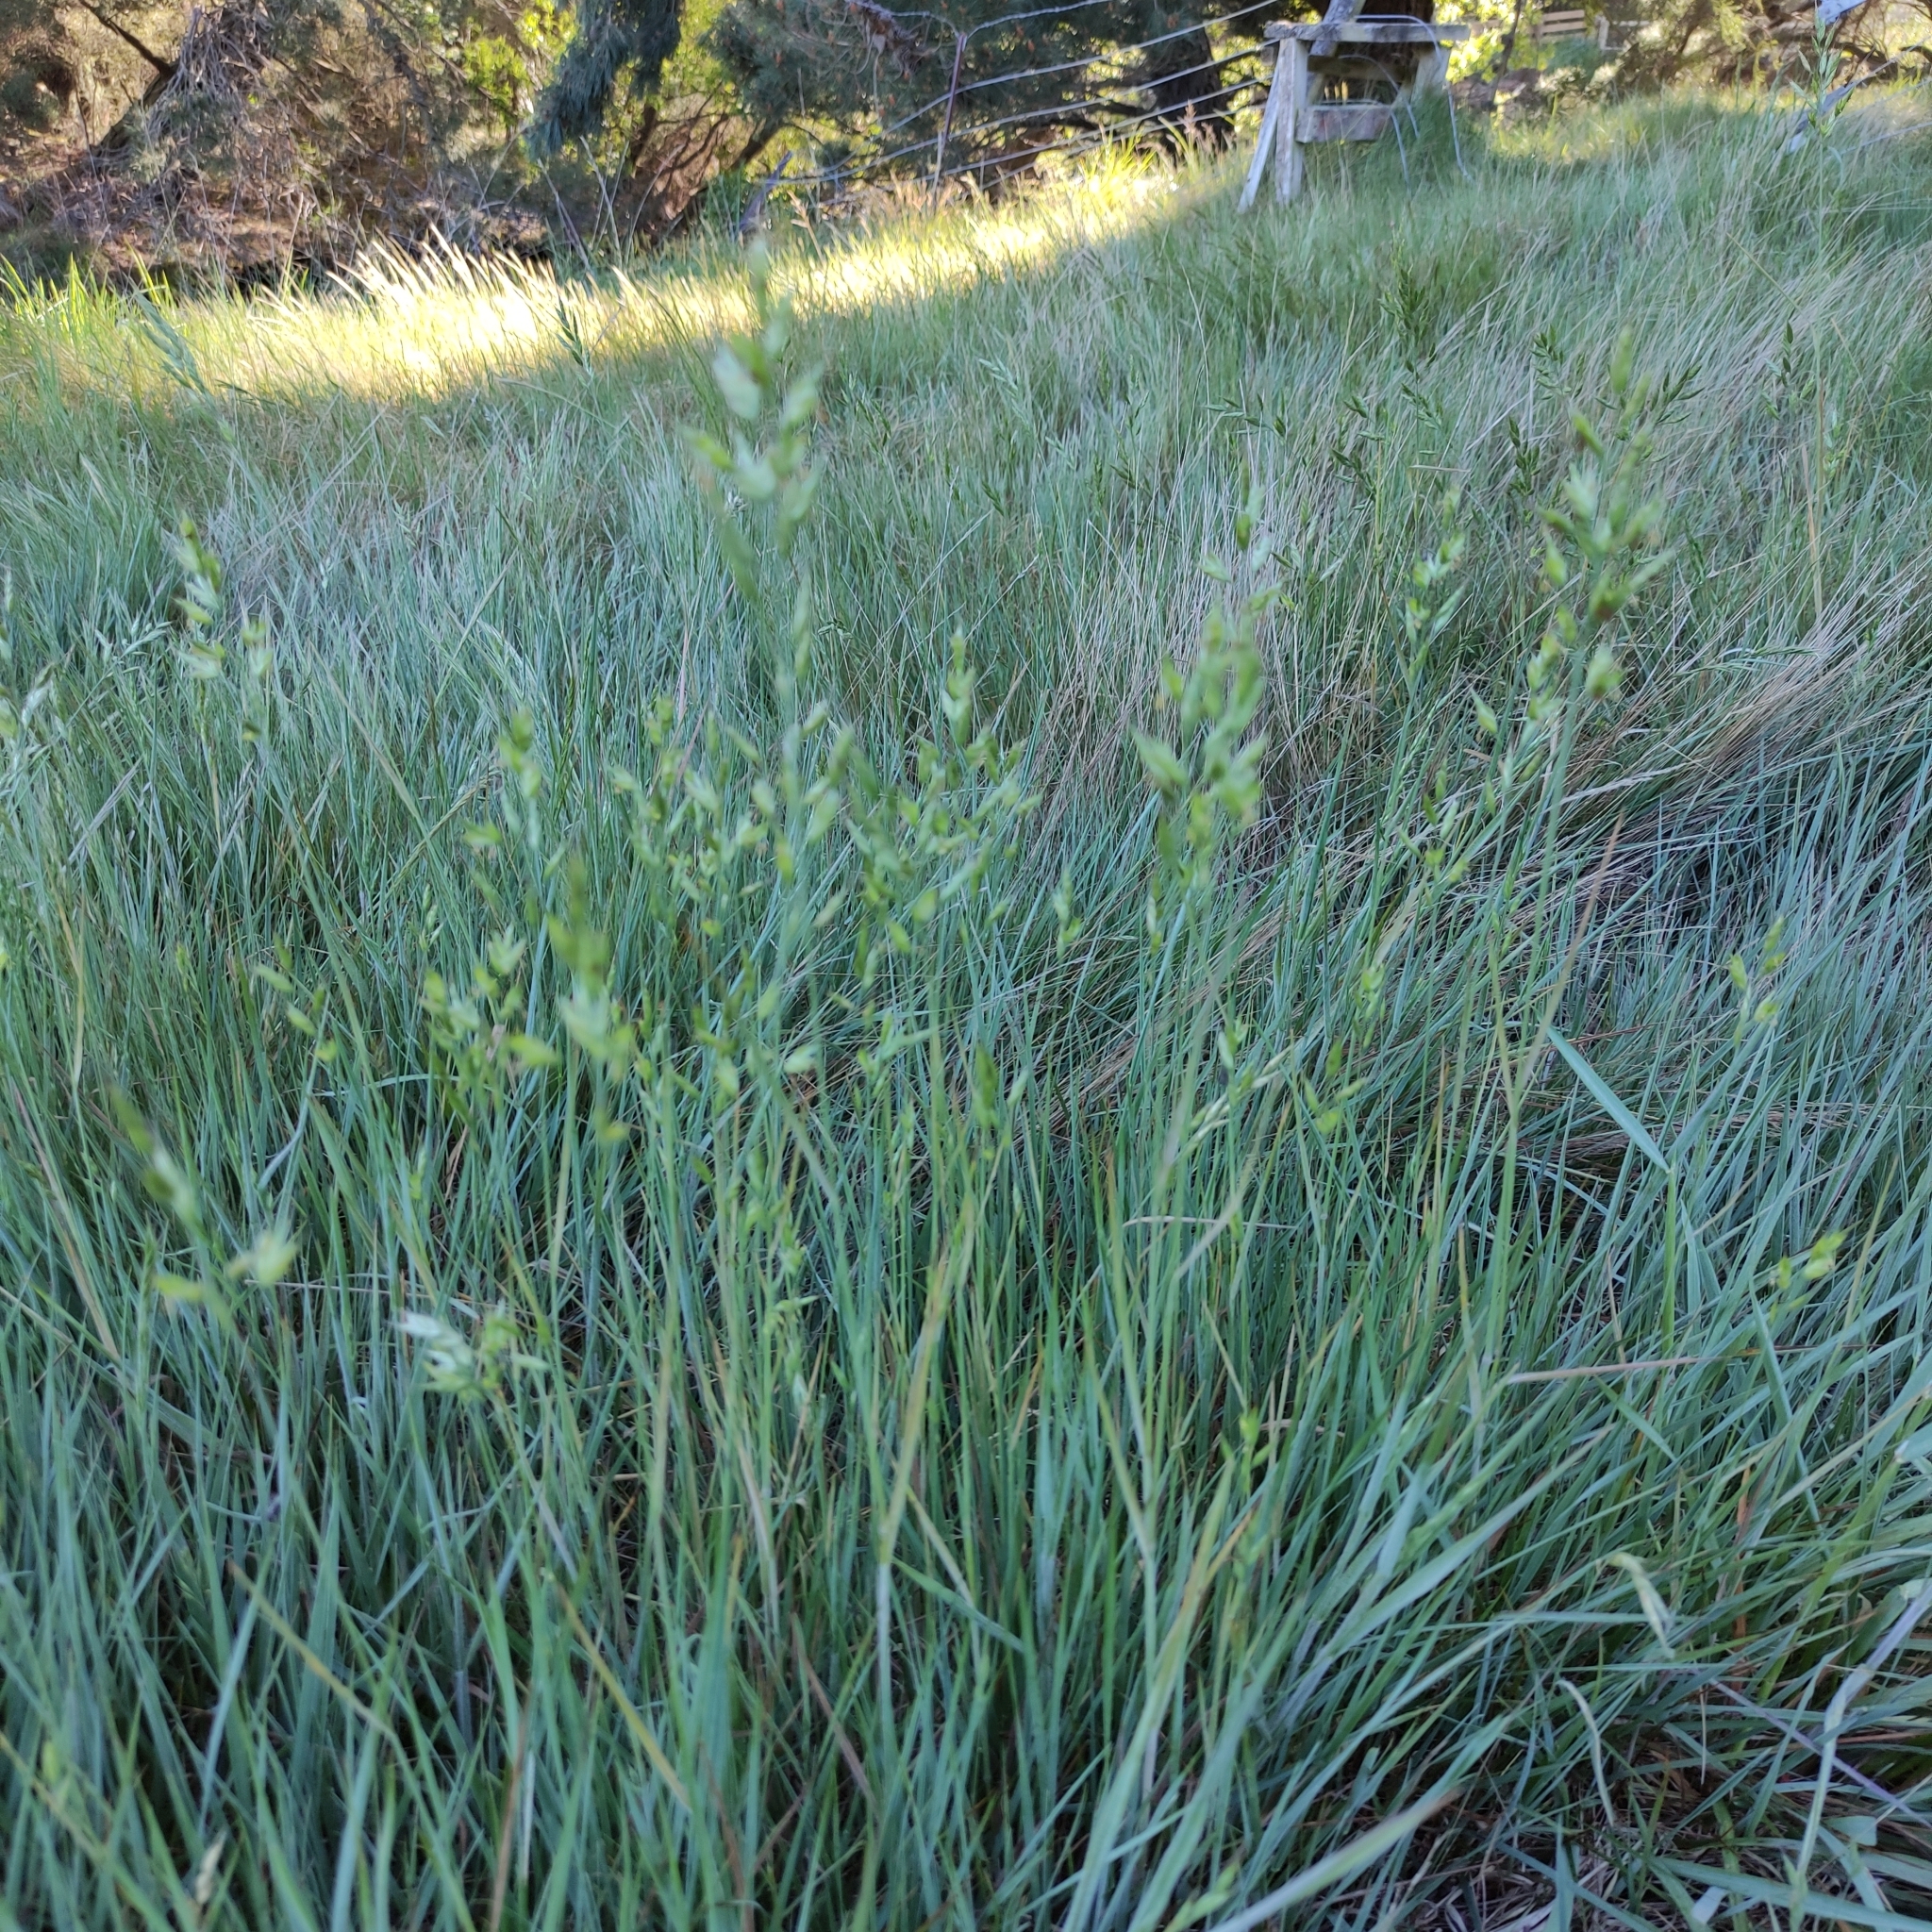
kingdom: Plantae
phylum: Tracheophyta
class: Liliopsida
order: Poales
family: Poaceae
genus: Bromus
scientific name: Bromus hordeaceus
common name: Soft brome
